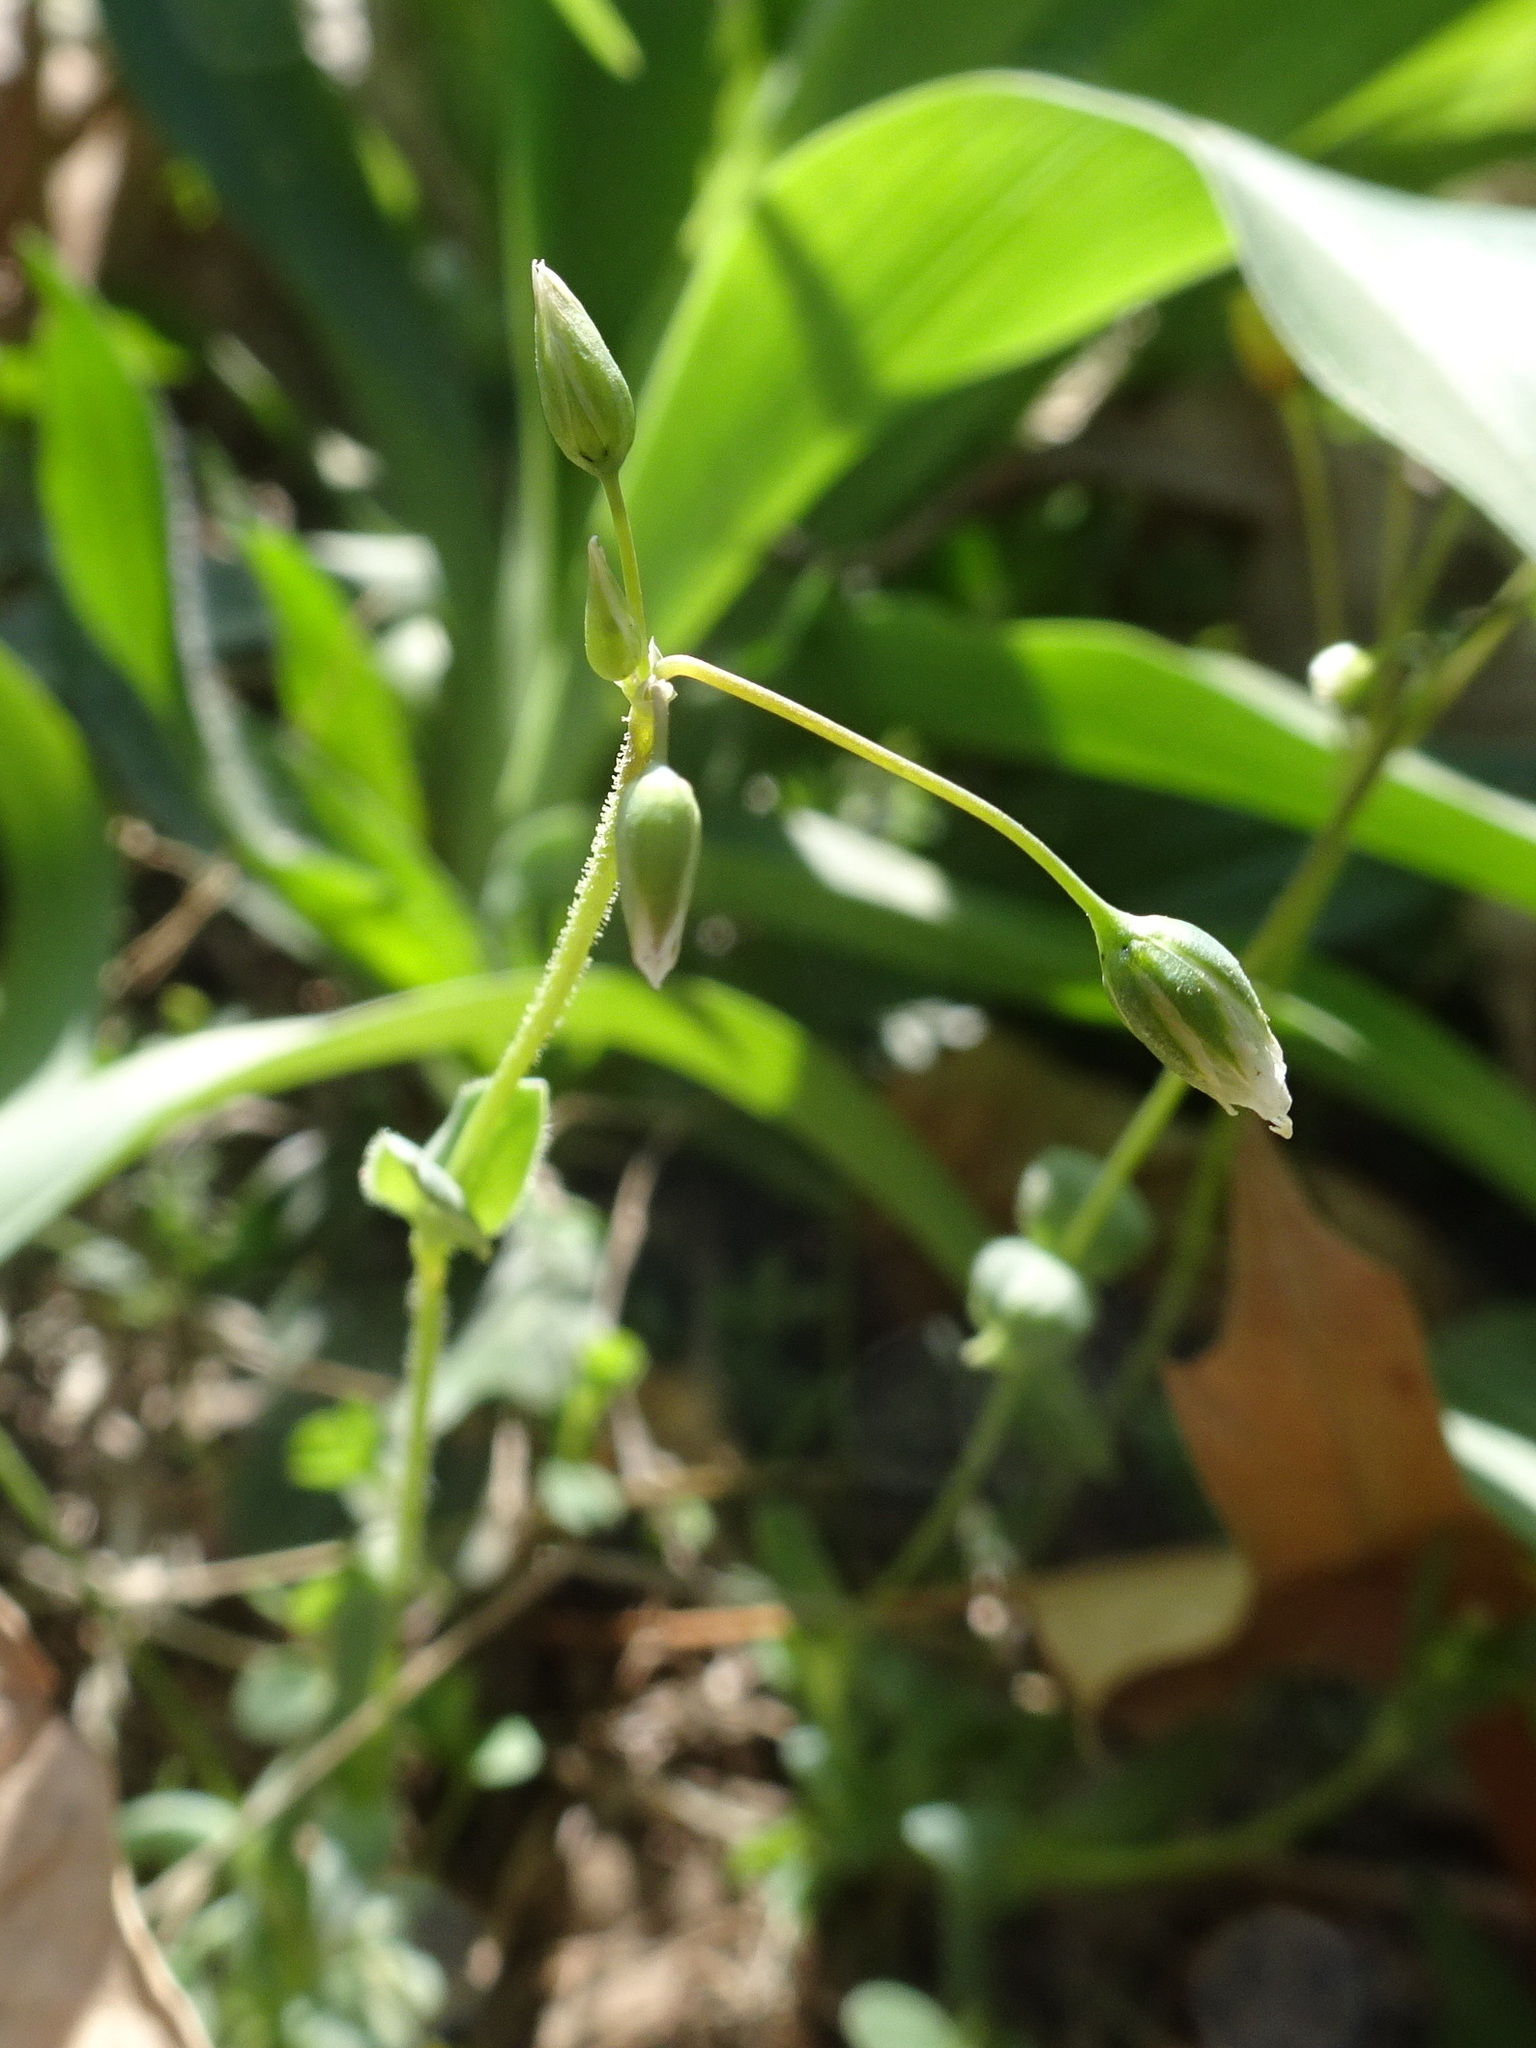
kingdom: Plantae
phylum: Tracheophyta
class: Magnoliopsida
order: Caryophyllales
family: Caryophyllaceae
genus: Holosteum
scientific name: Holosteum umbellatum
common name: Jagged chickweed
